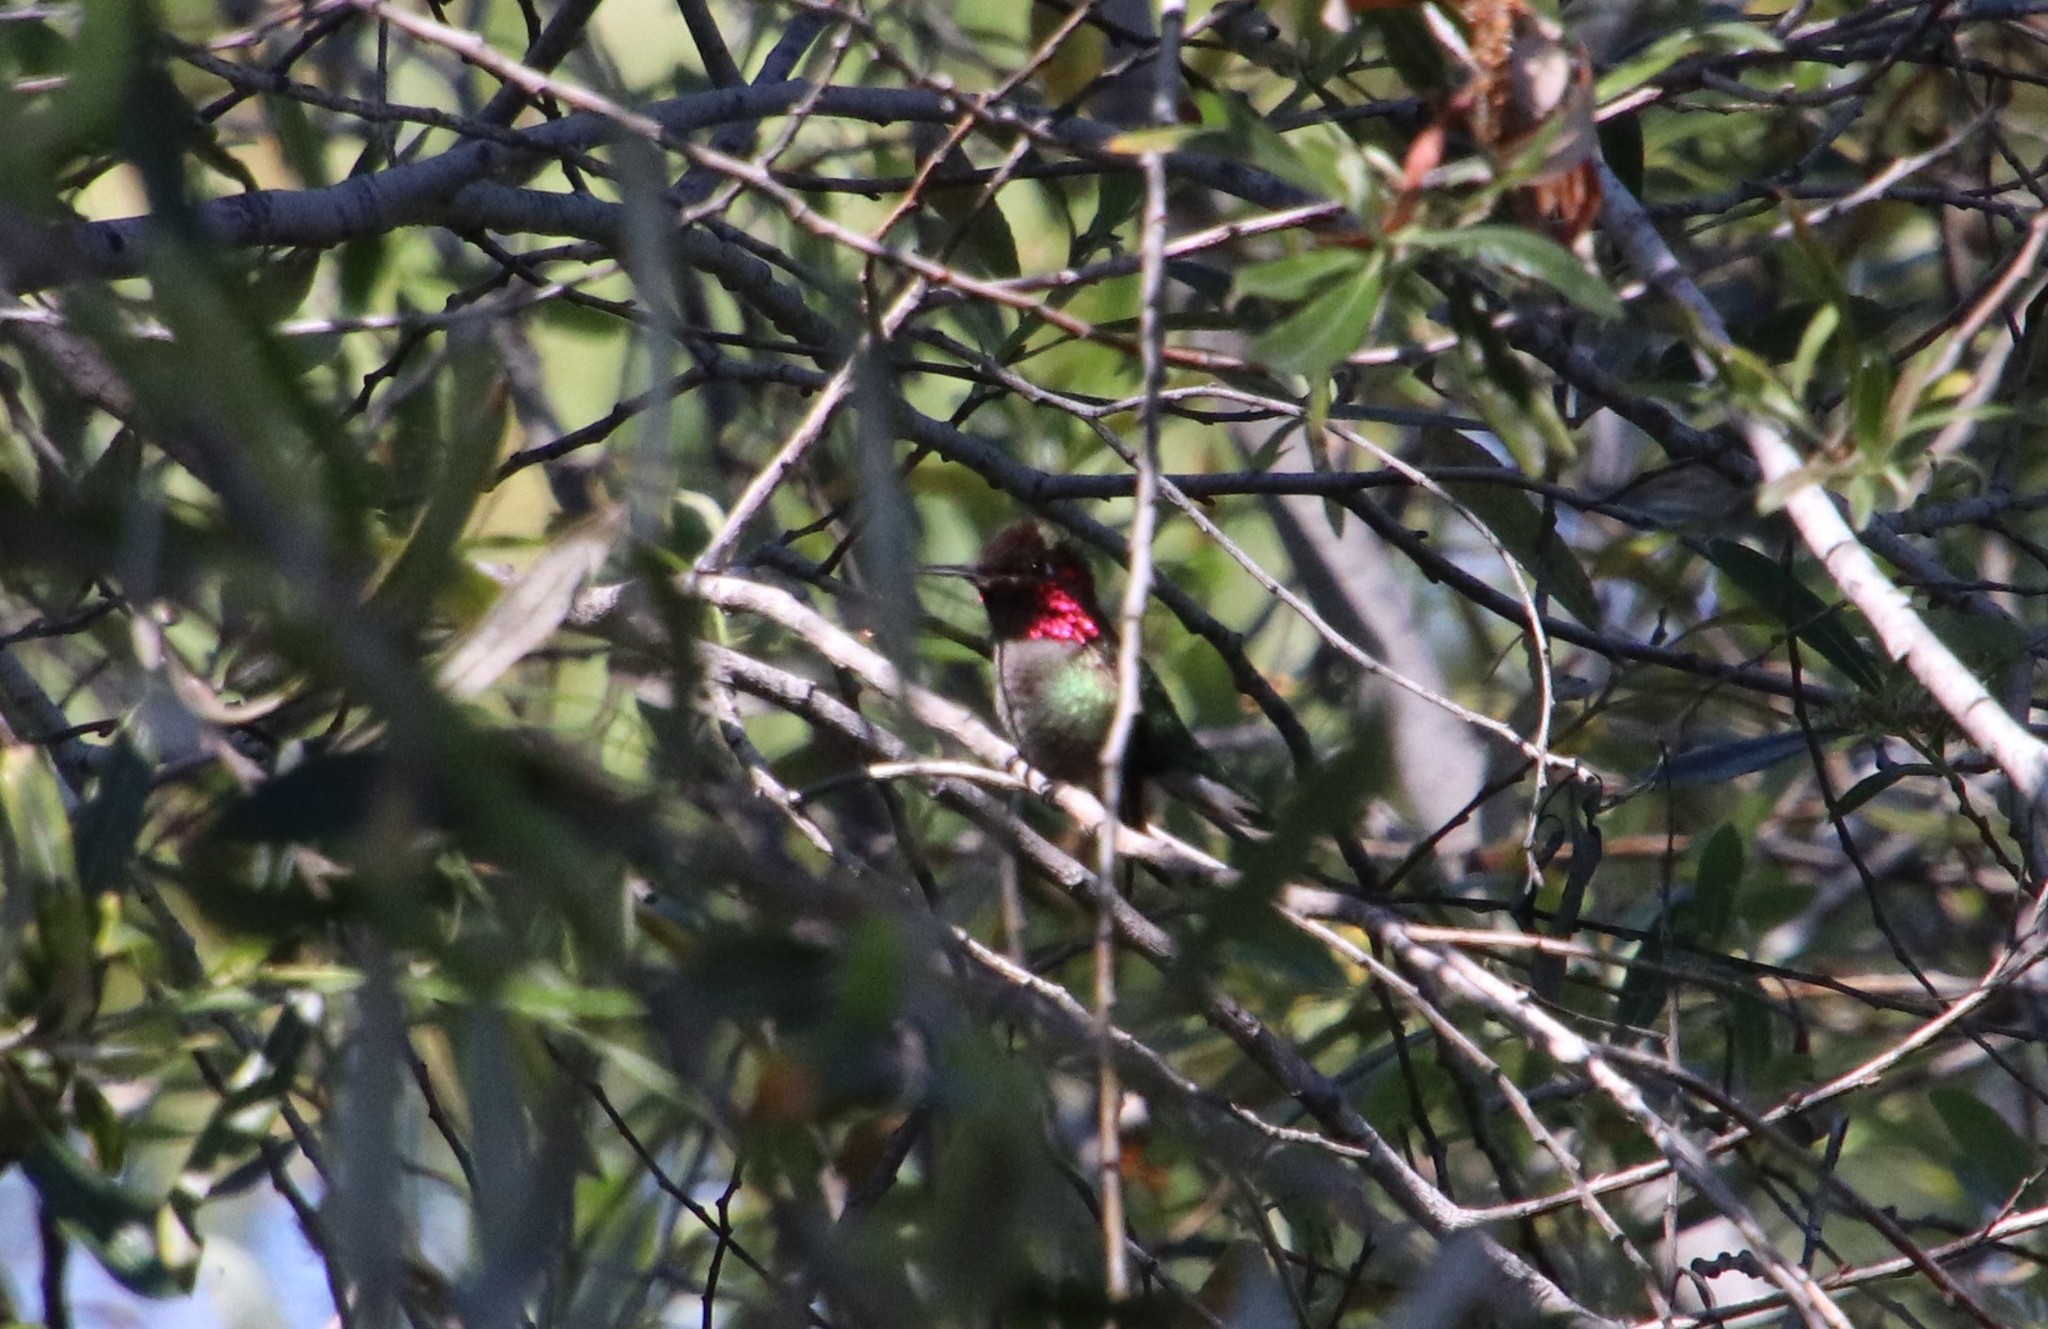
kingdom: Animalia
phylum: Chordata
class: Aves
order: Apodiformes
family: Trochilidae
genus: Calypte
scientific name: Calypte anna
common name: Anna's hummingbird
